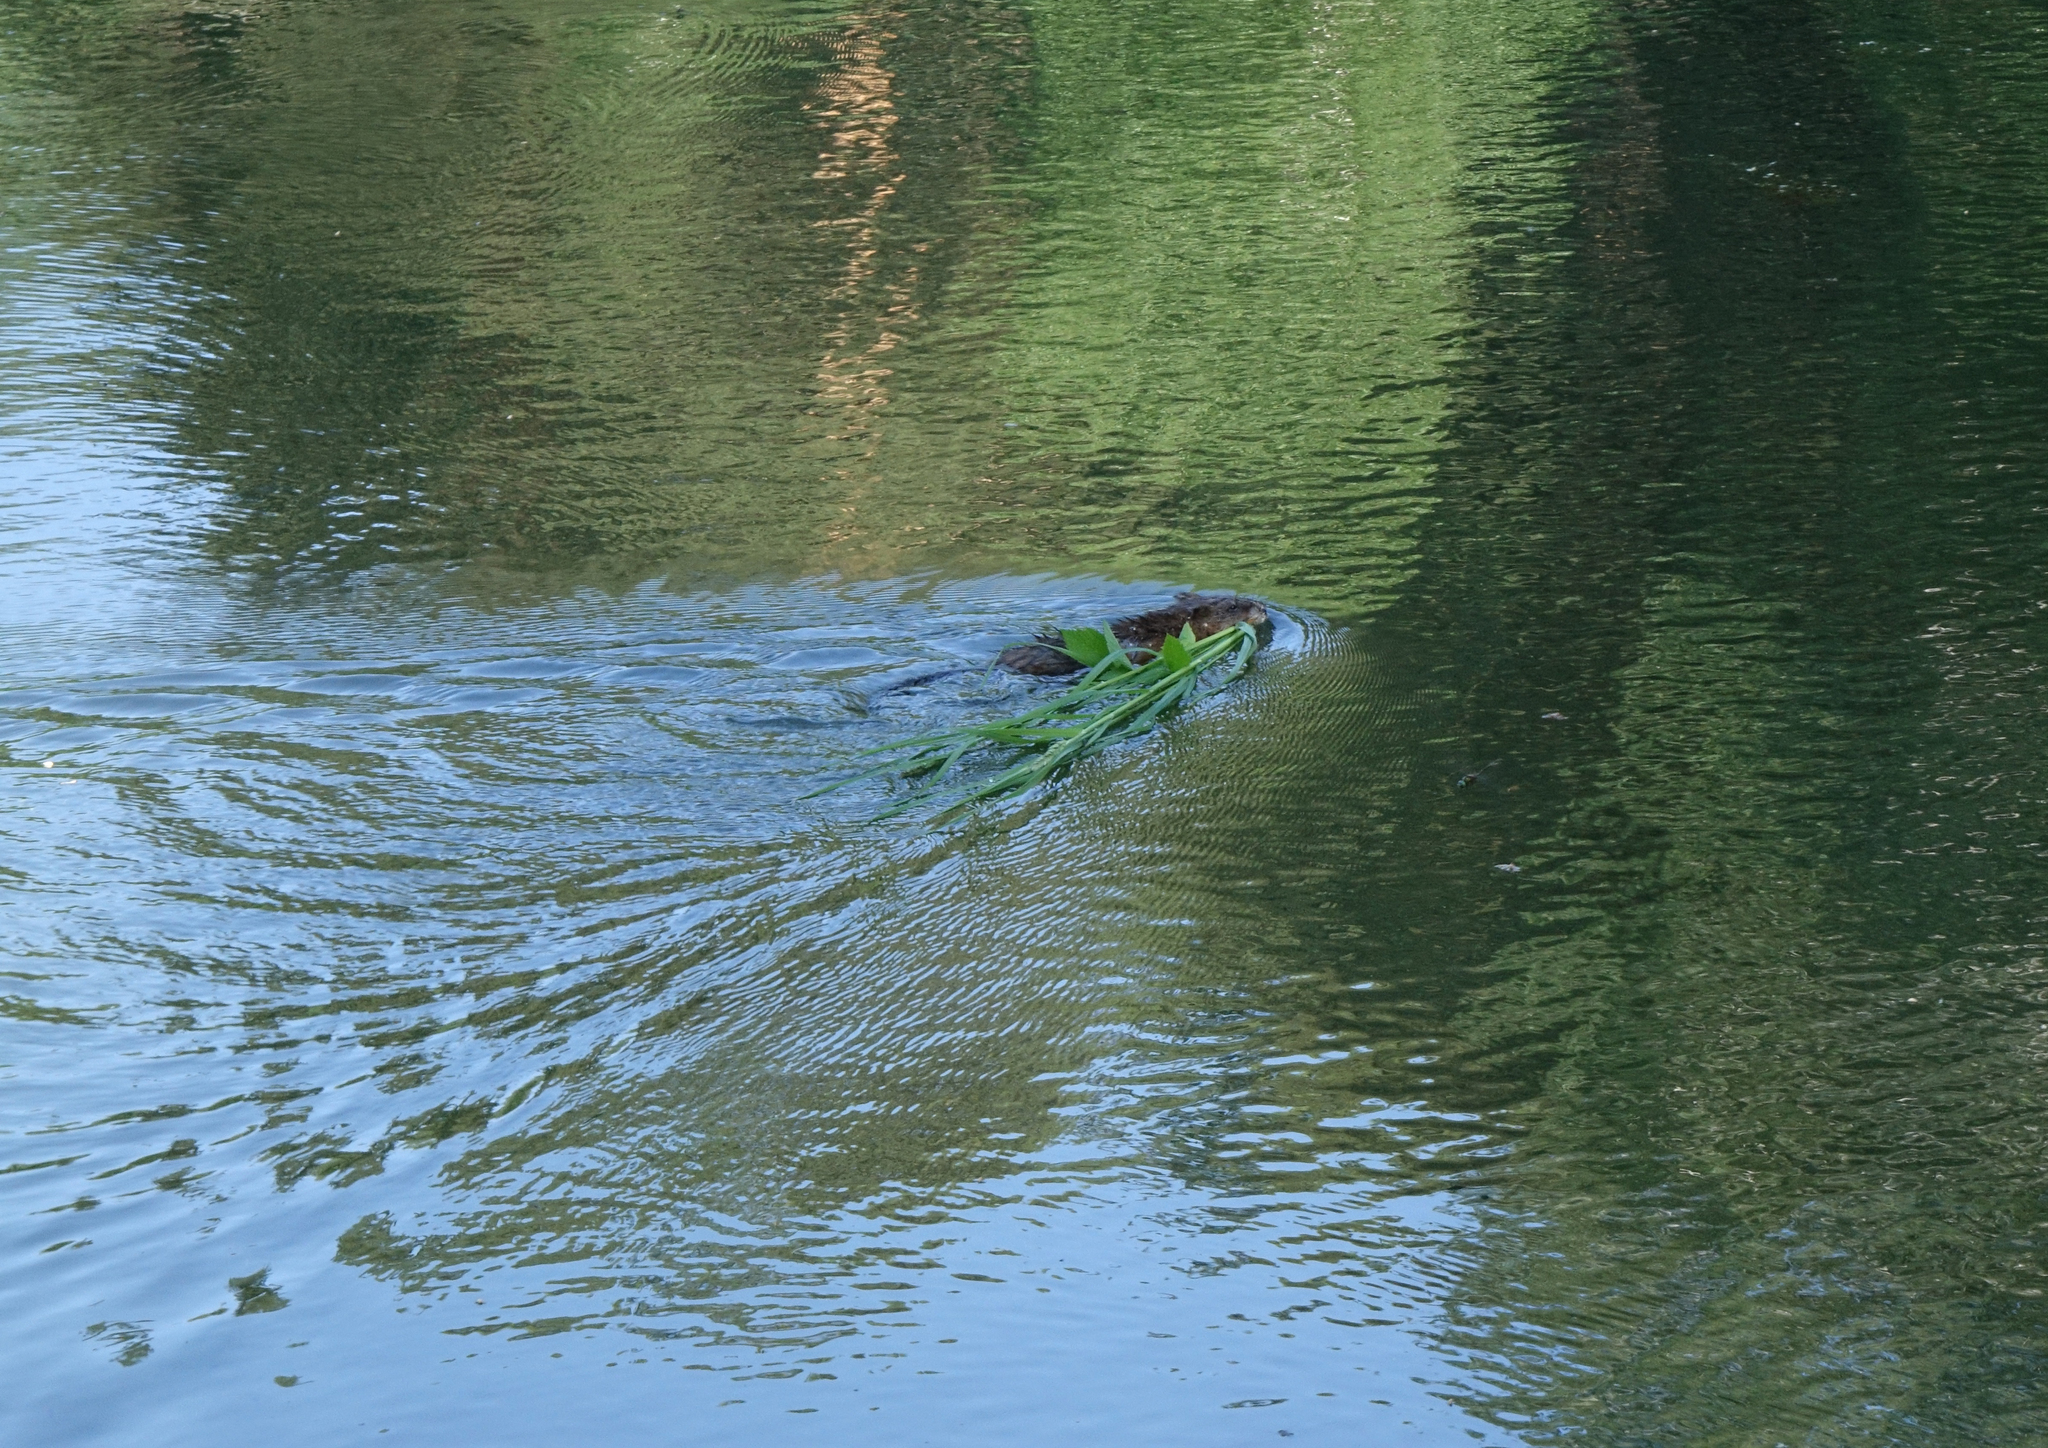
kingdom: Animalia
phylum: Chordata
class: Mammalia
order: Rodentia
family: Cricetidae
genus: Ondatra
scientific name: Ondatra zibethicus
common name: Muskrat
